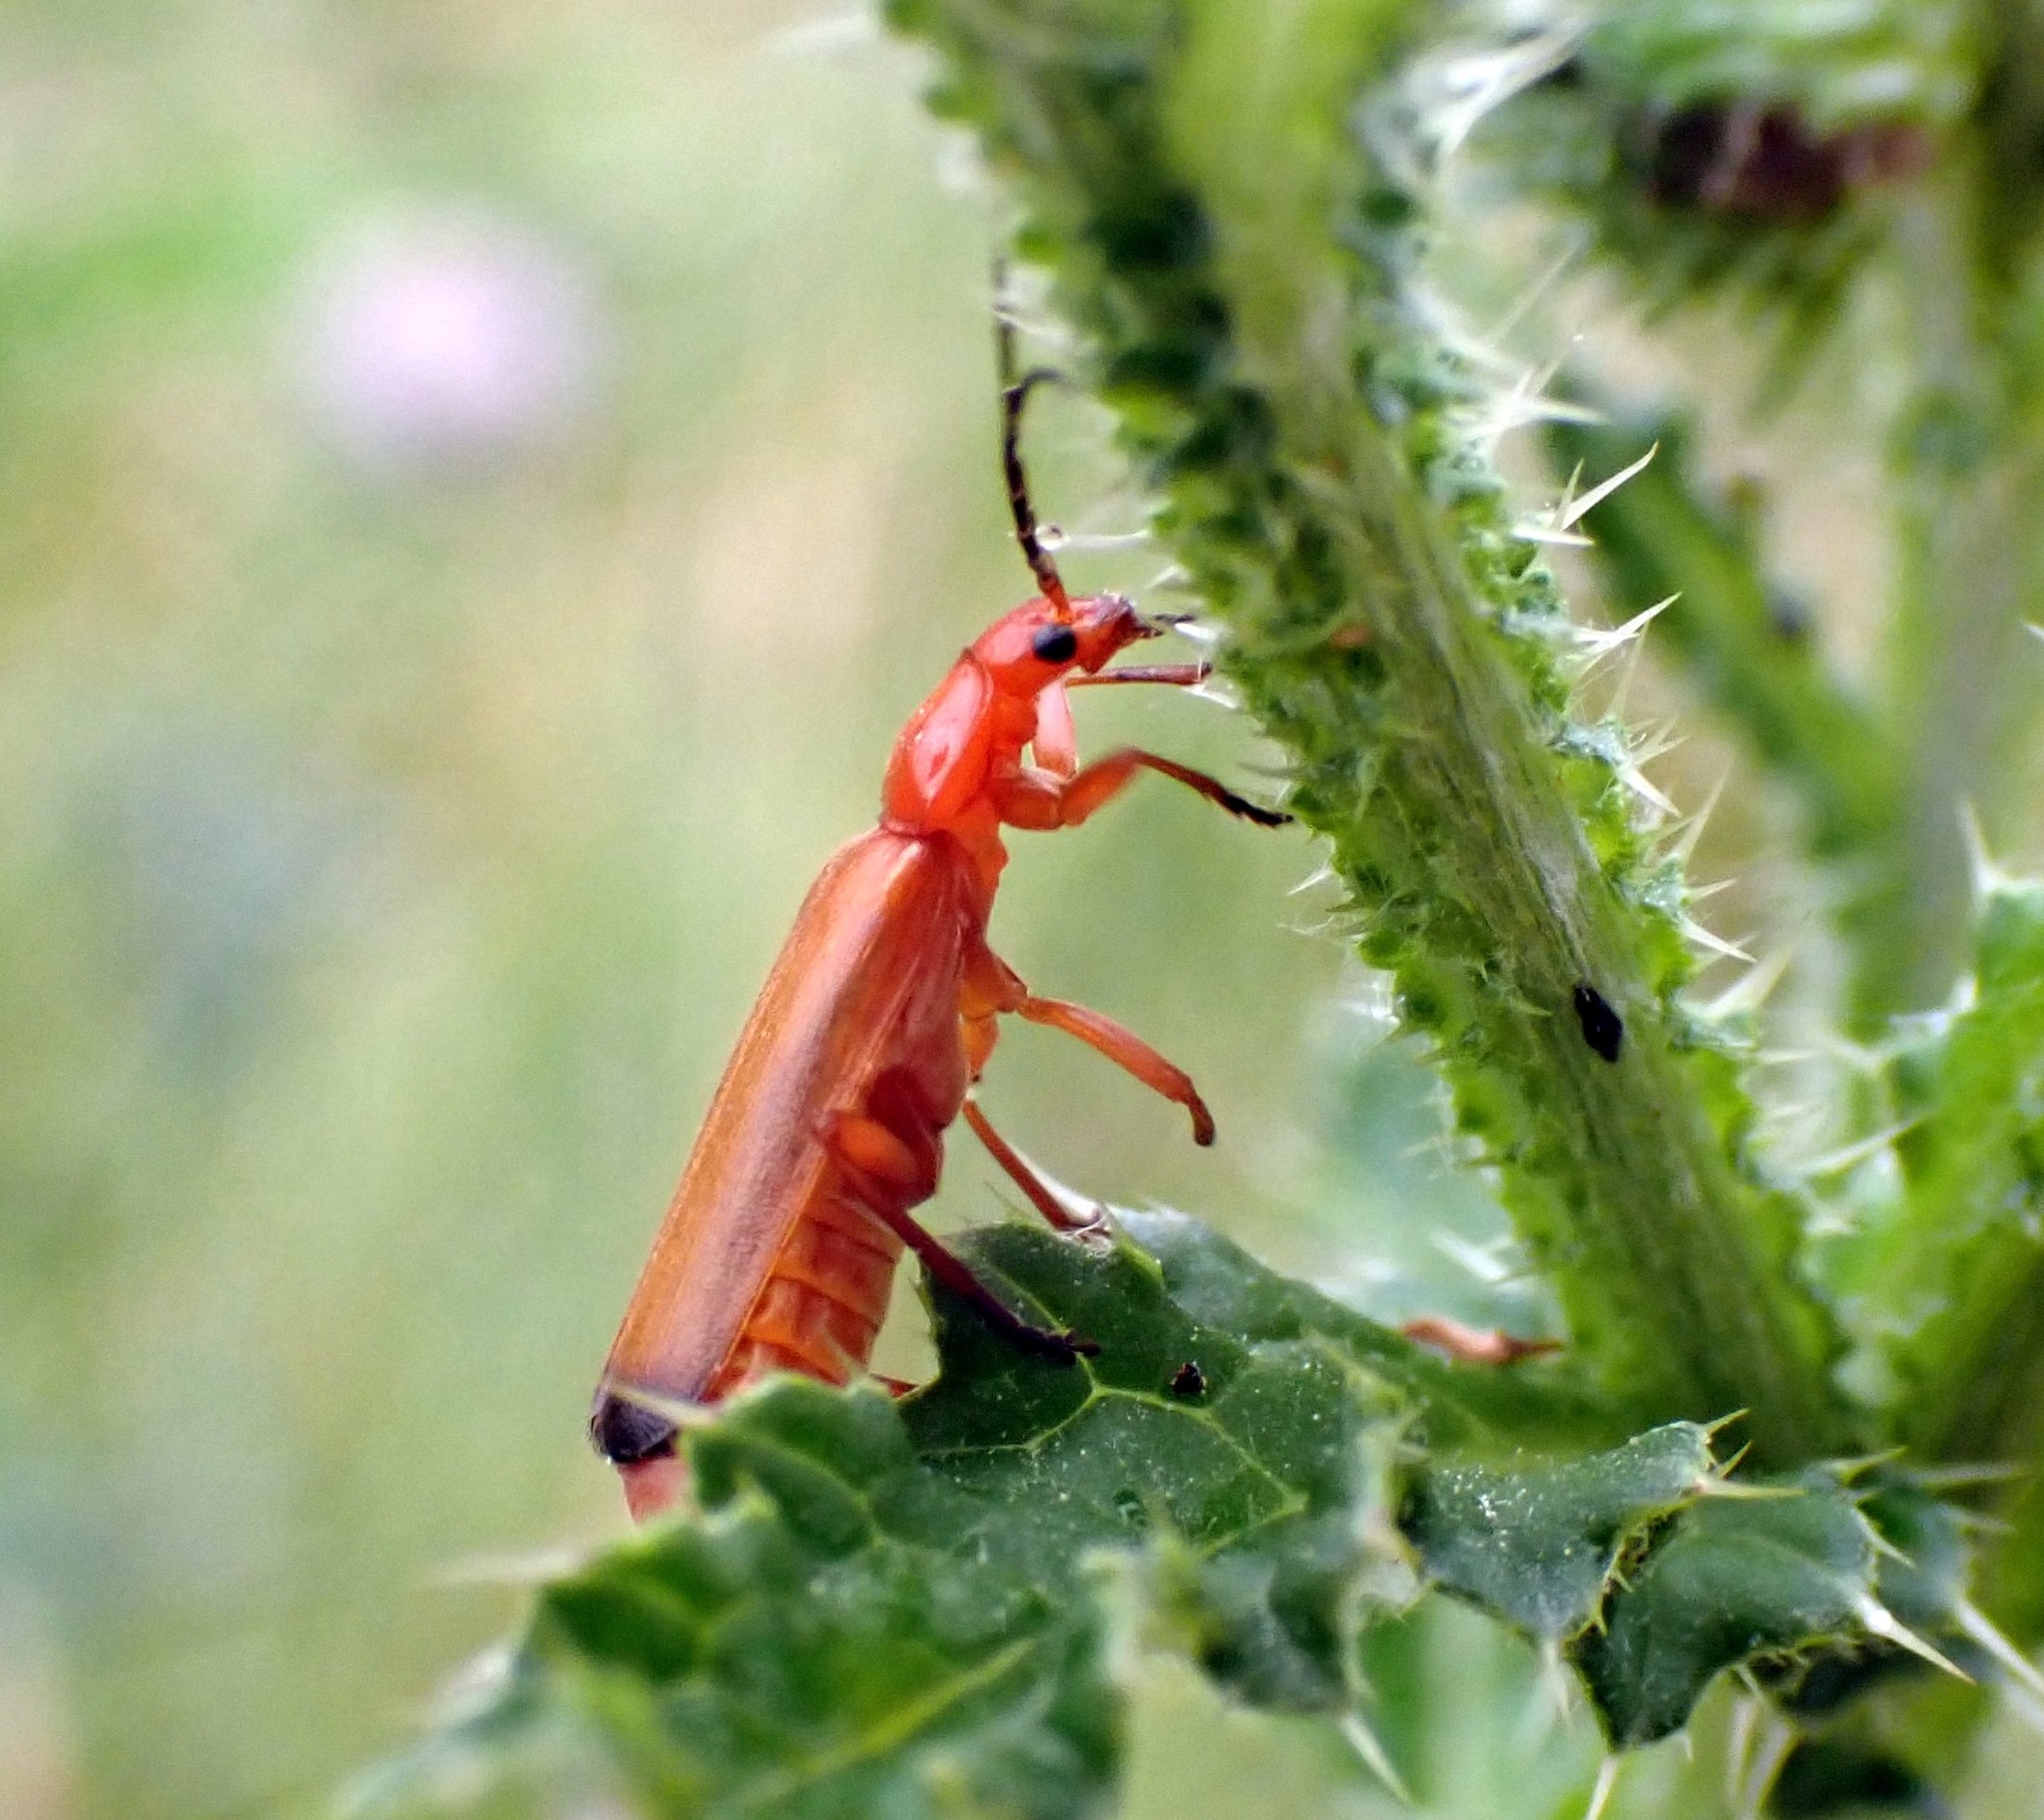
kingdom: Animalia
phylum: Arthropoda
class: Insecta
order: Coleoptera
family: Cantharidae
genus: Rhagonycha
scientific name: Rhagonycha fulva
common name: Common red soldier beetle
